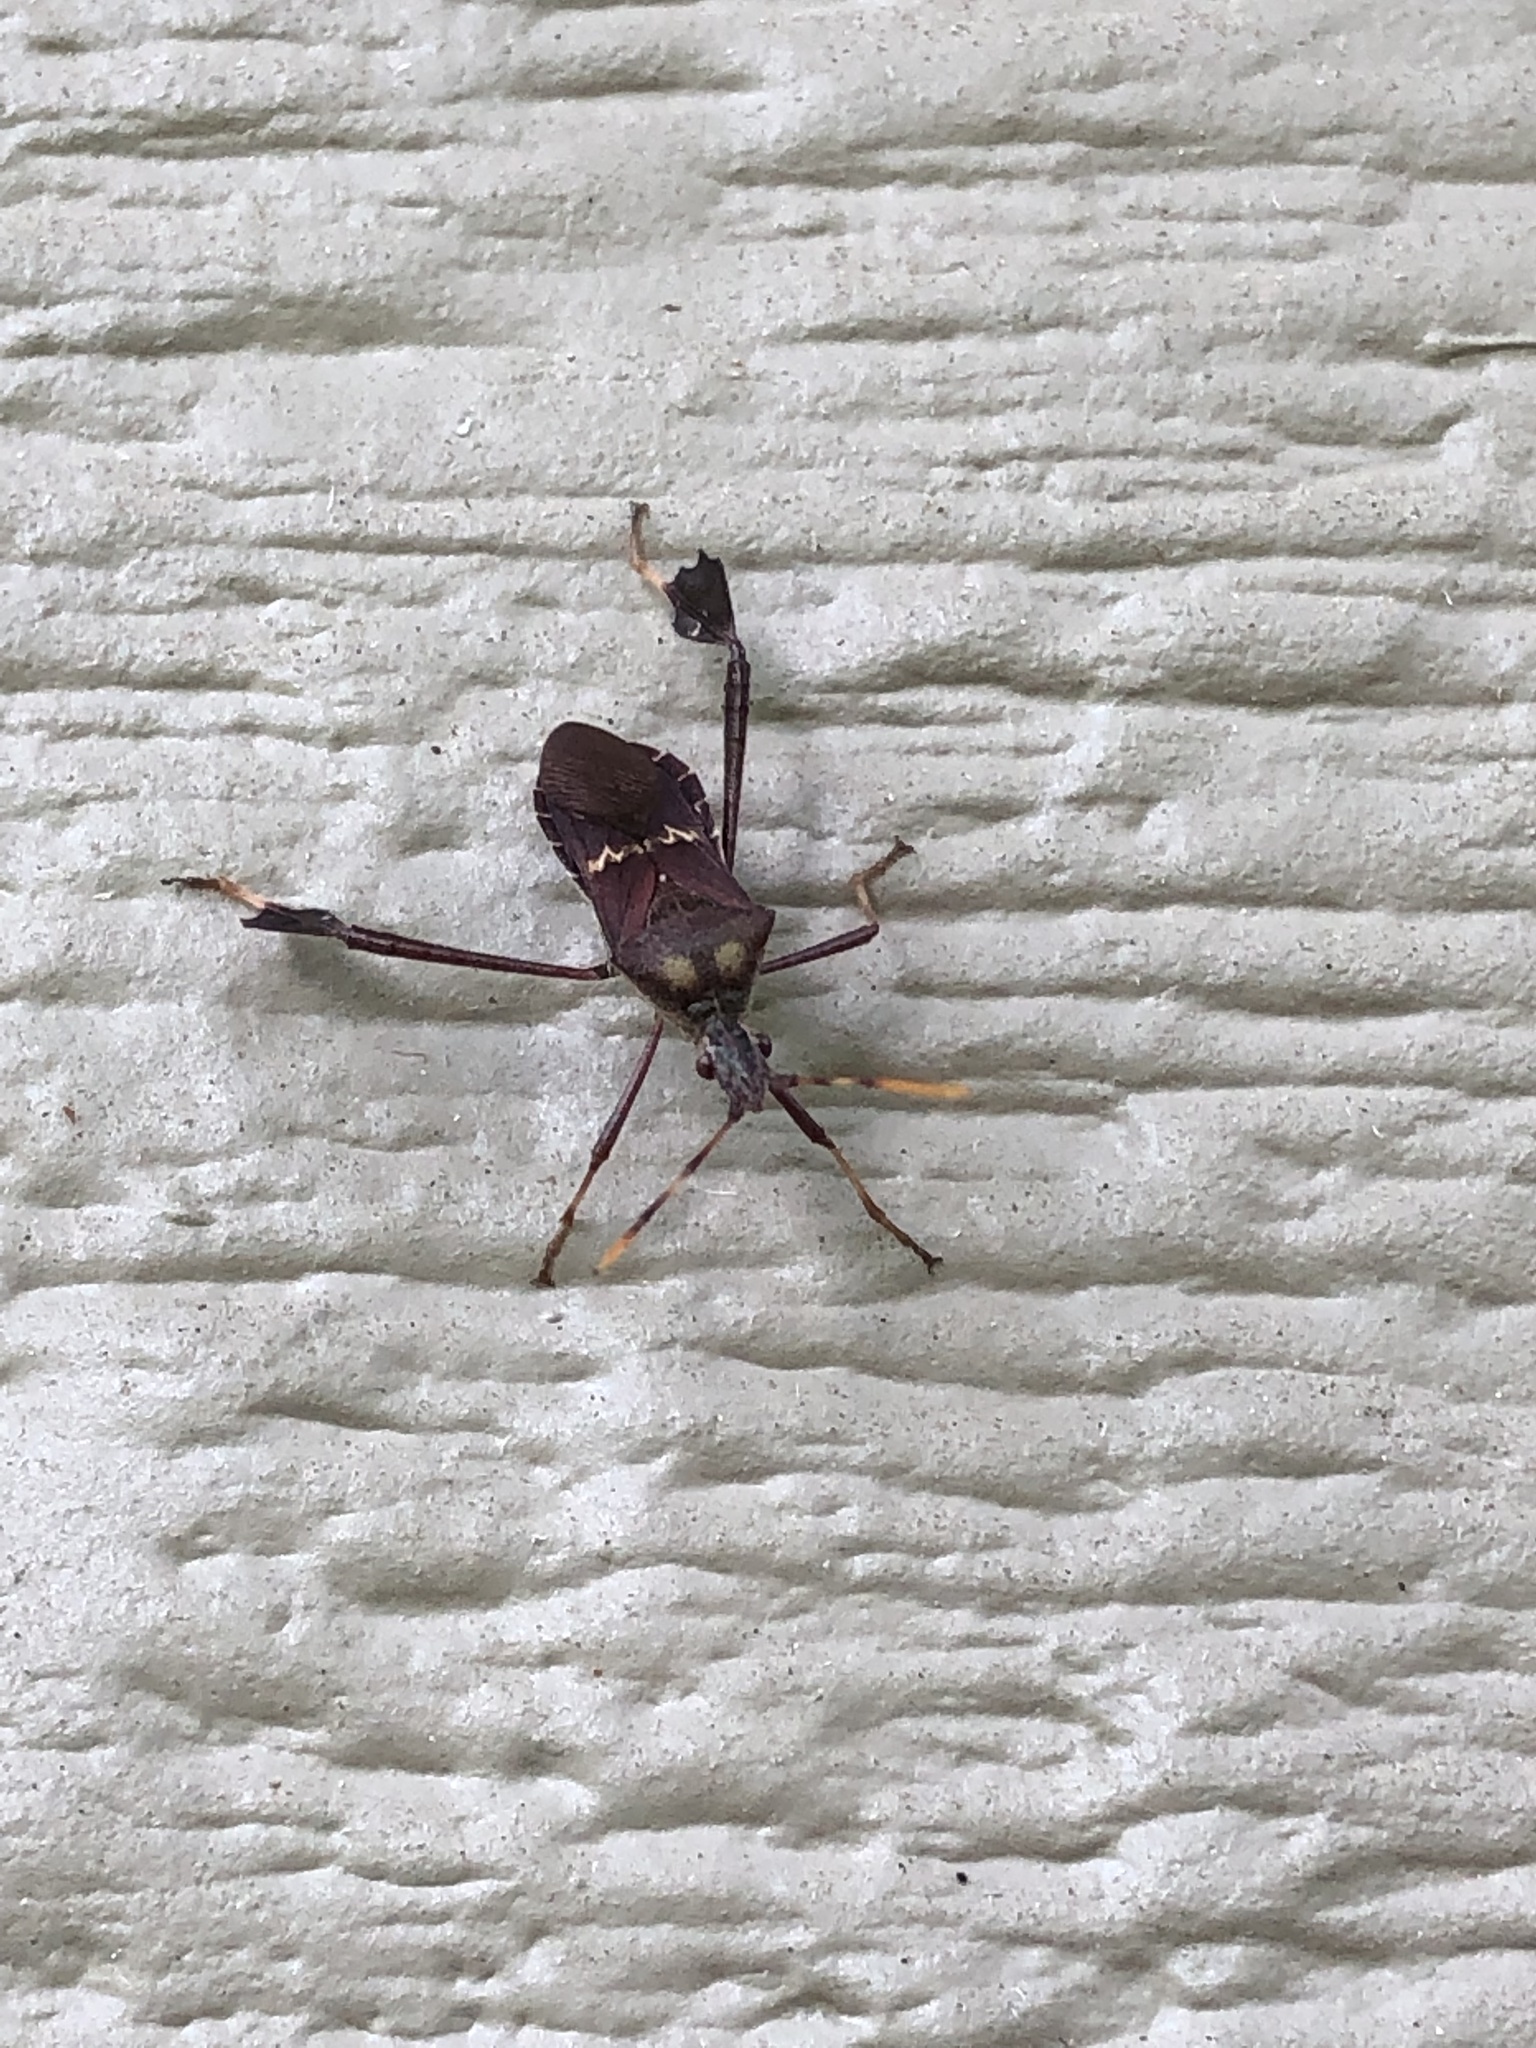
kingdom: Animalia
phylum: Arthropoda
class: Insecta
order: Hemiptera
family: Coreidae
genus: Leptoglossus
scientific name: Leptoglossus zonatus
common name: Large-legged bug
